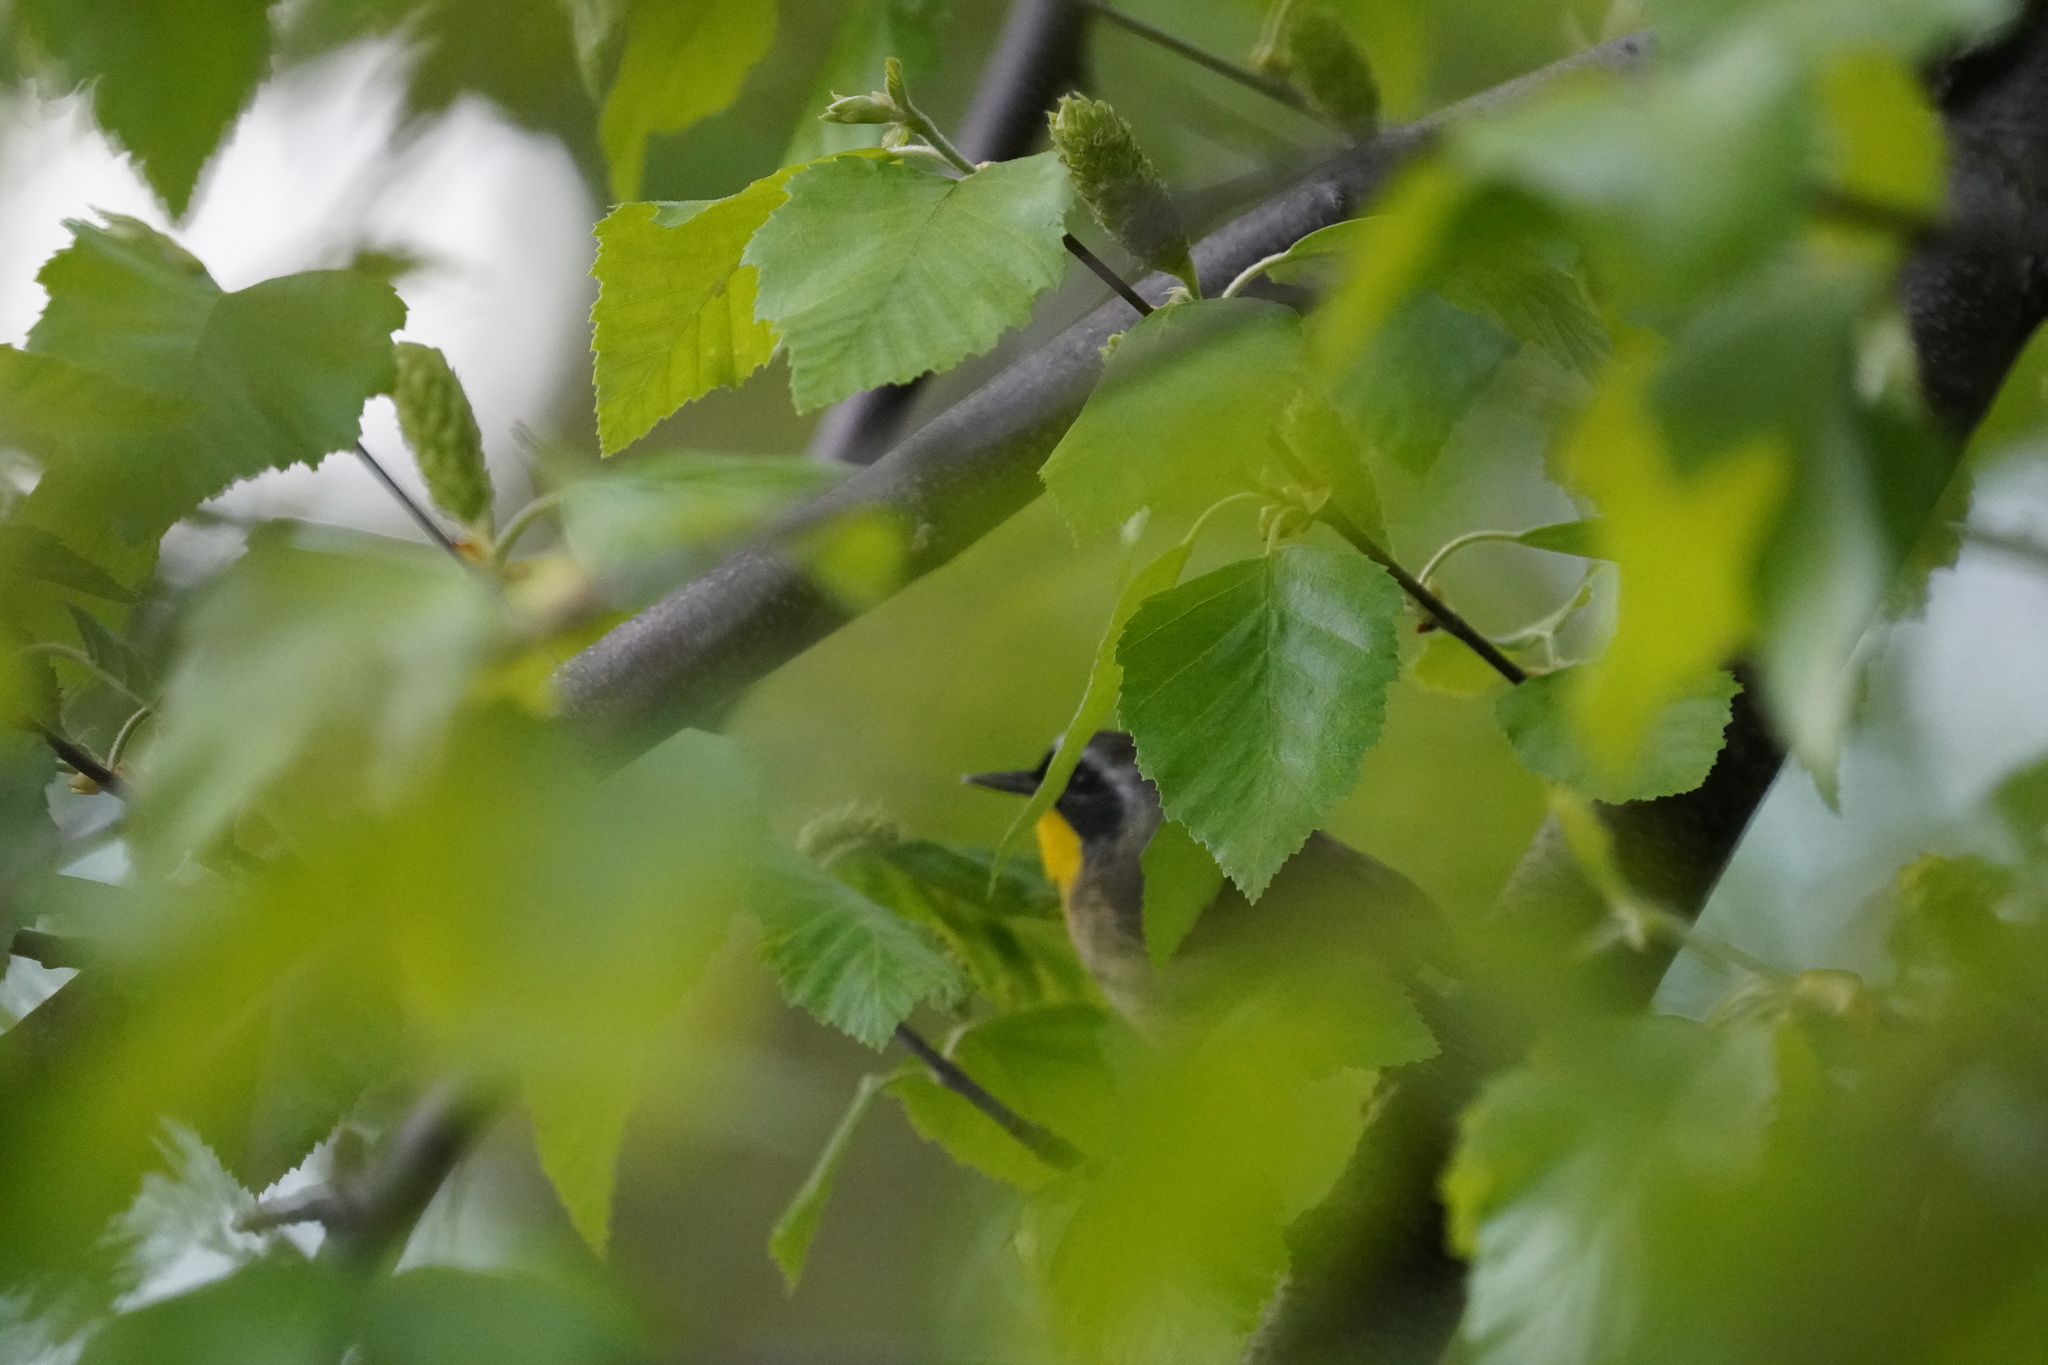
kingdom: Animalia
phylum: Chordata
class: Aves
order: Passeriformes
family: Parulidae
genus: Geothlypis
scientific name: Geothlypis trichas
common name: Common yellowthroat
